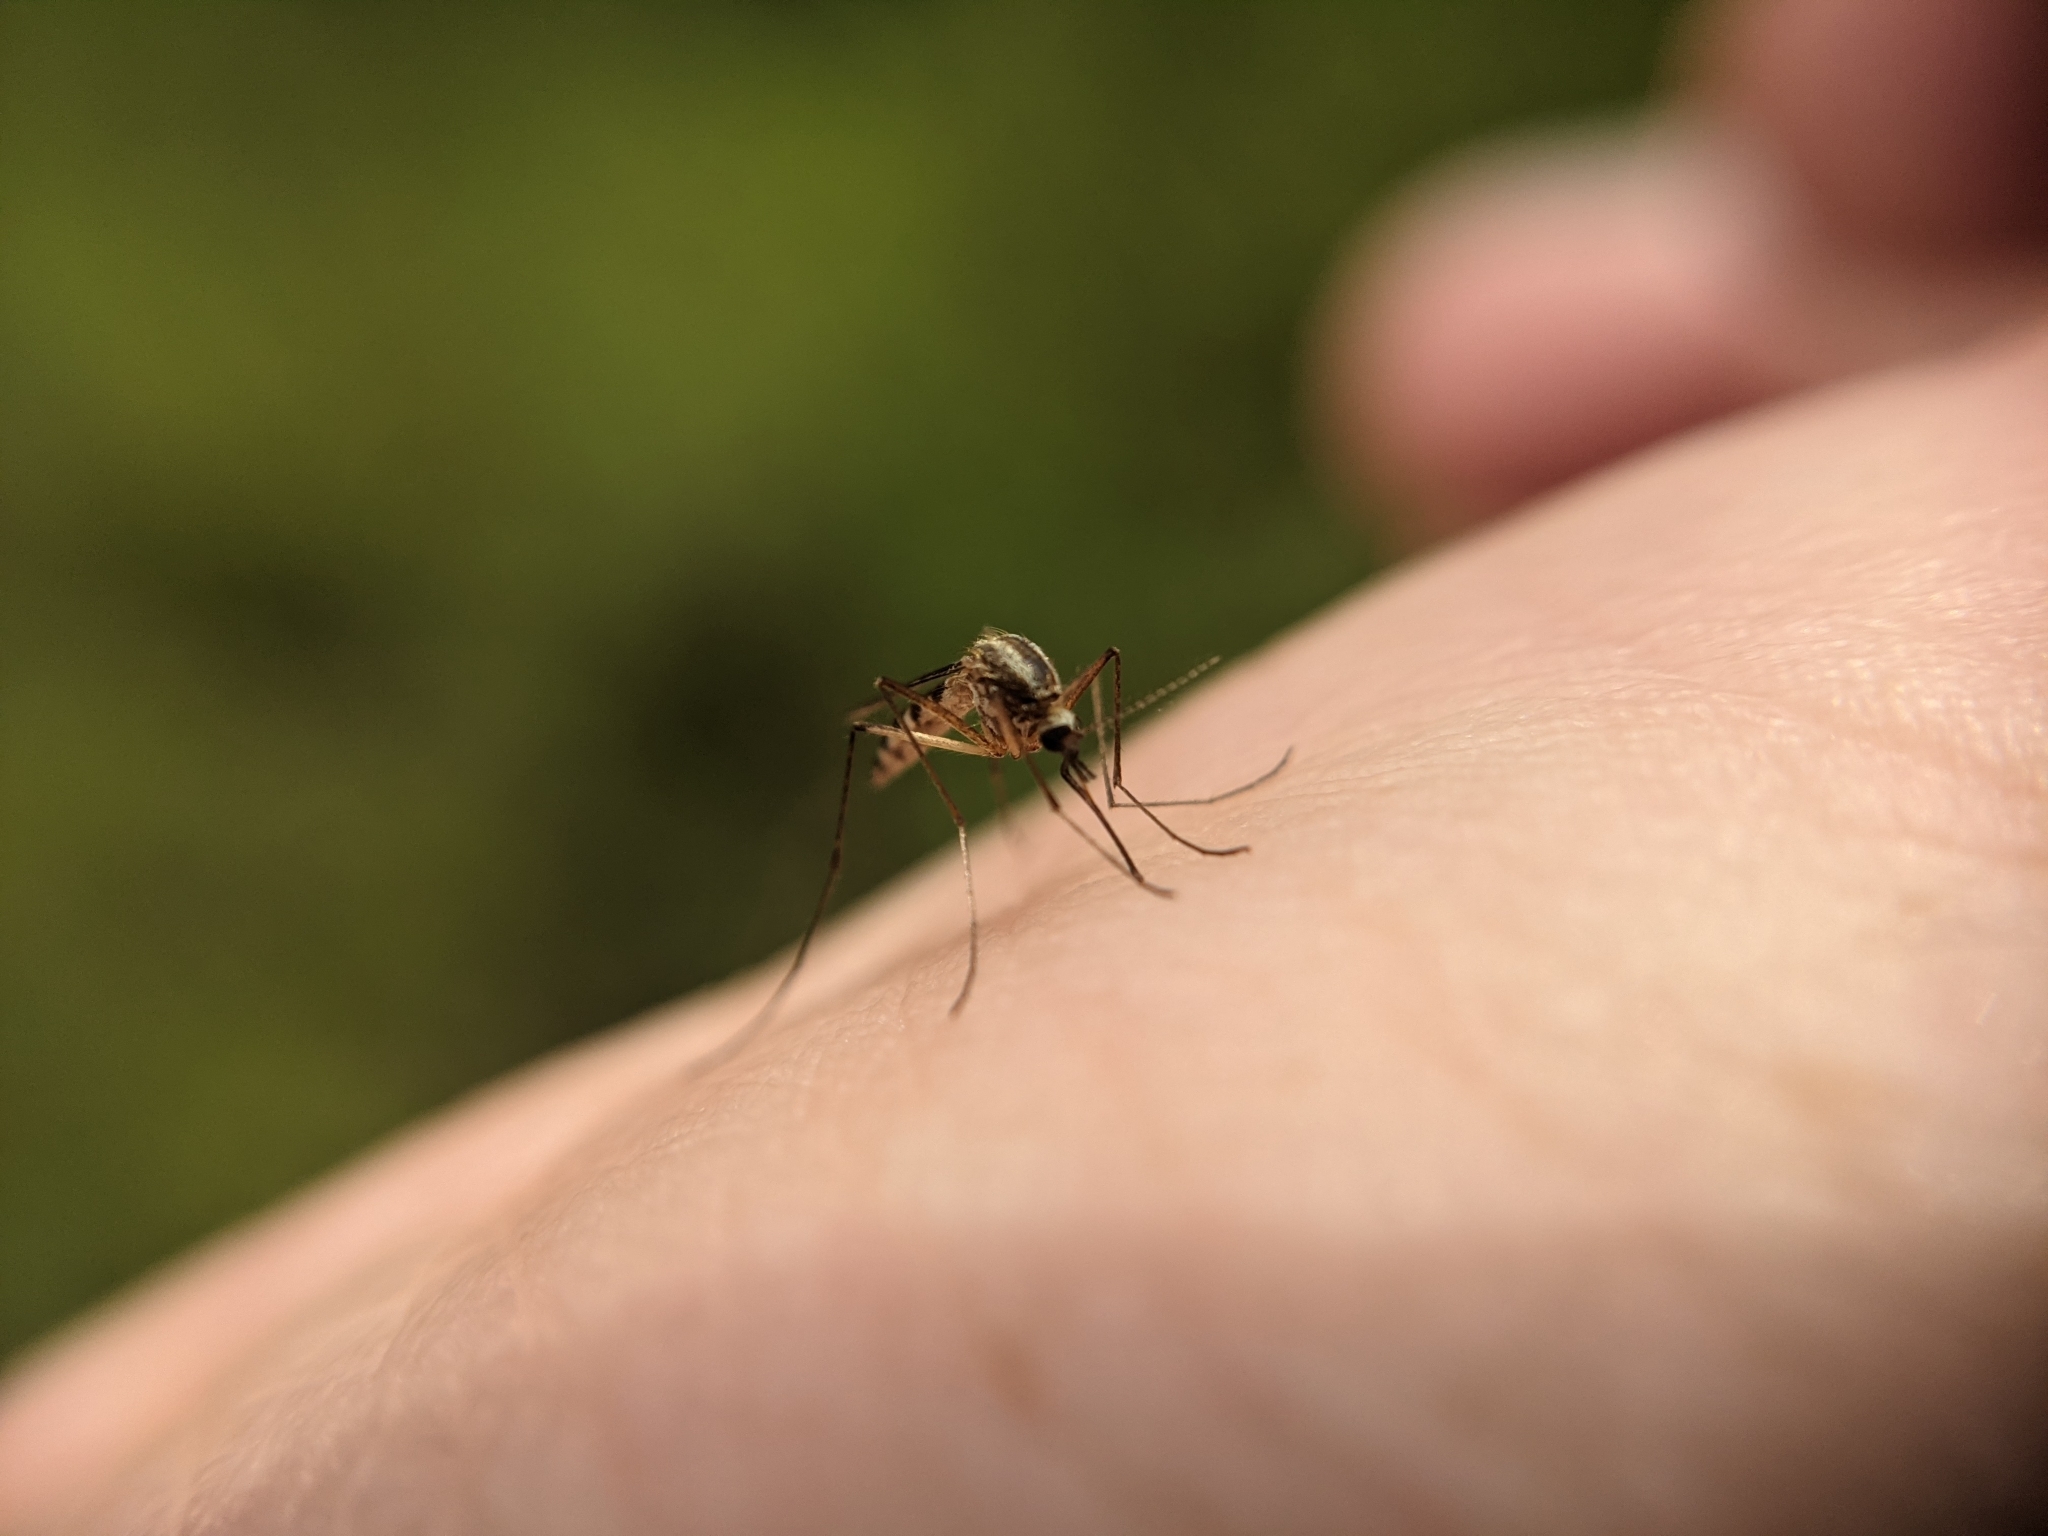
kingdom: Animalia
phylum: Arthropoda
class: Insecta
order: Diptera
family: Culicidae
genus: Aedes
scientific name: Aedes trivittatus
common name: Plains floodwater mosquito
